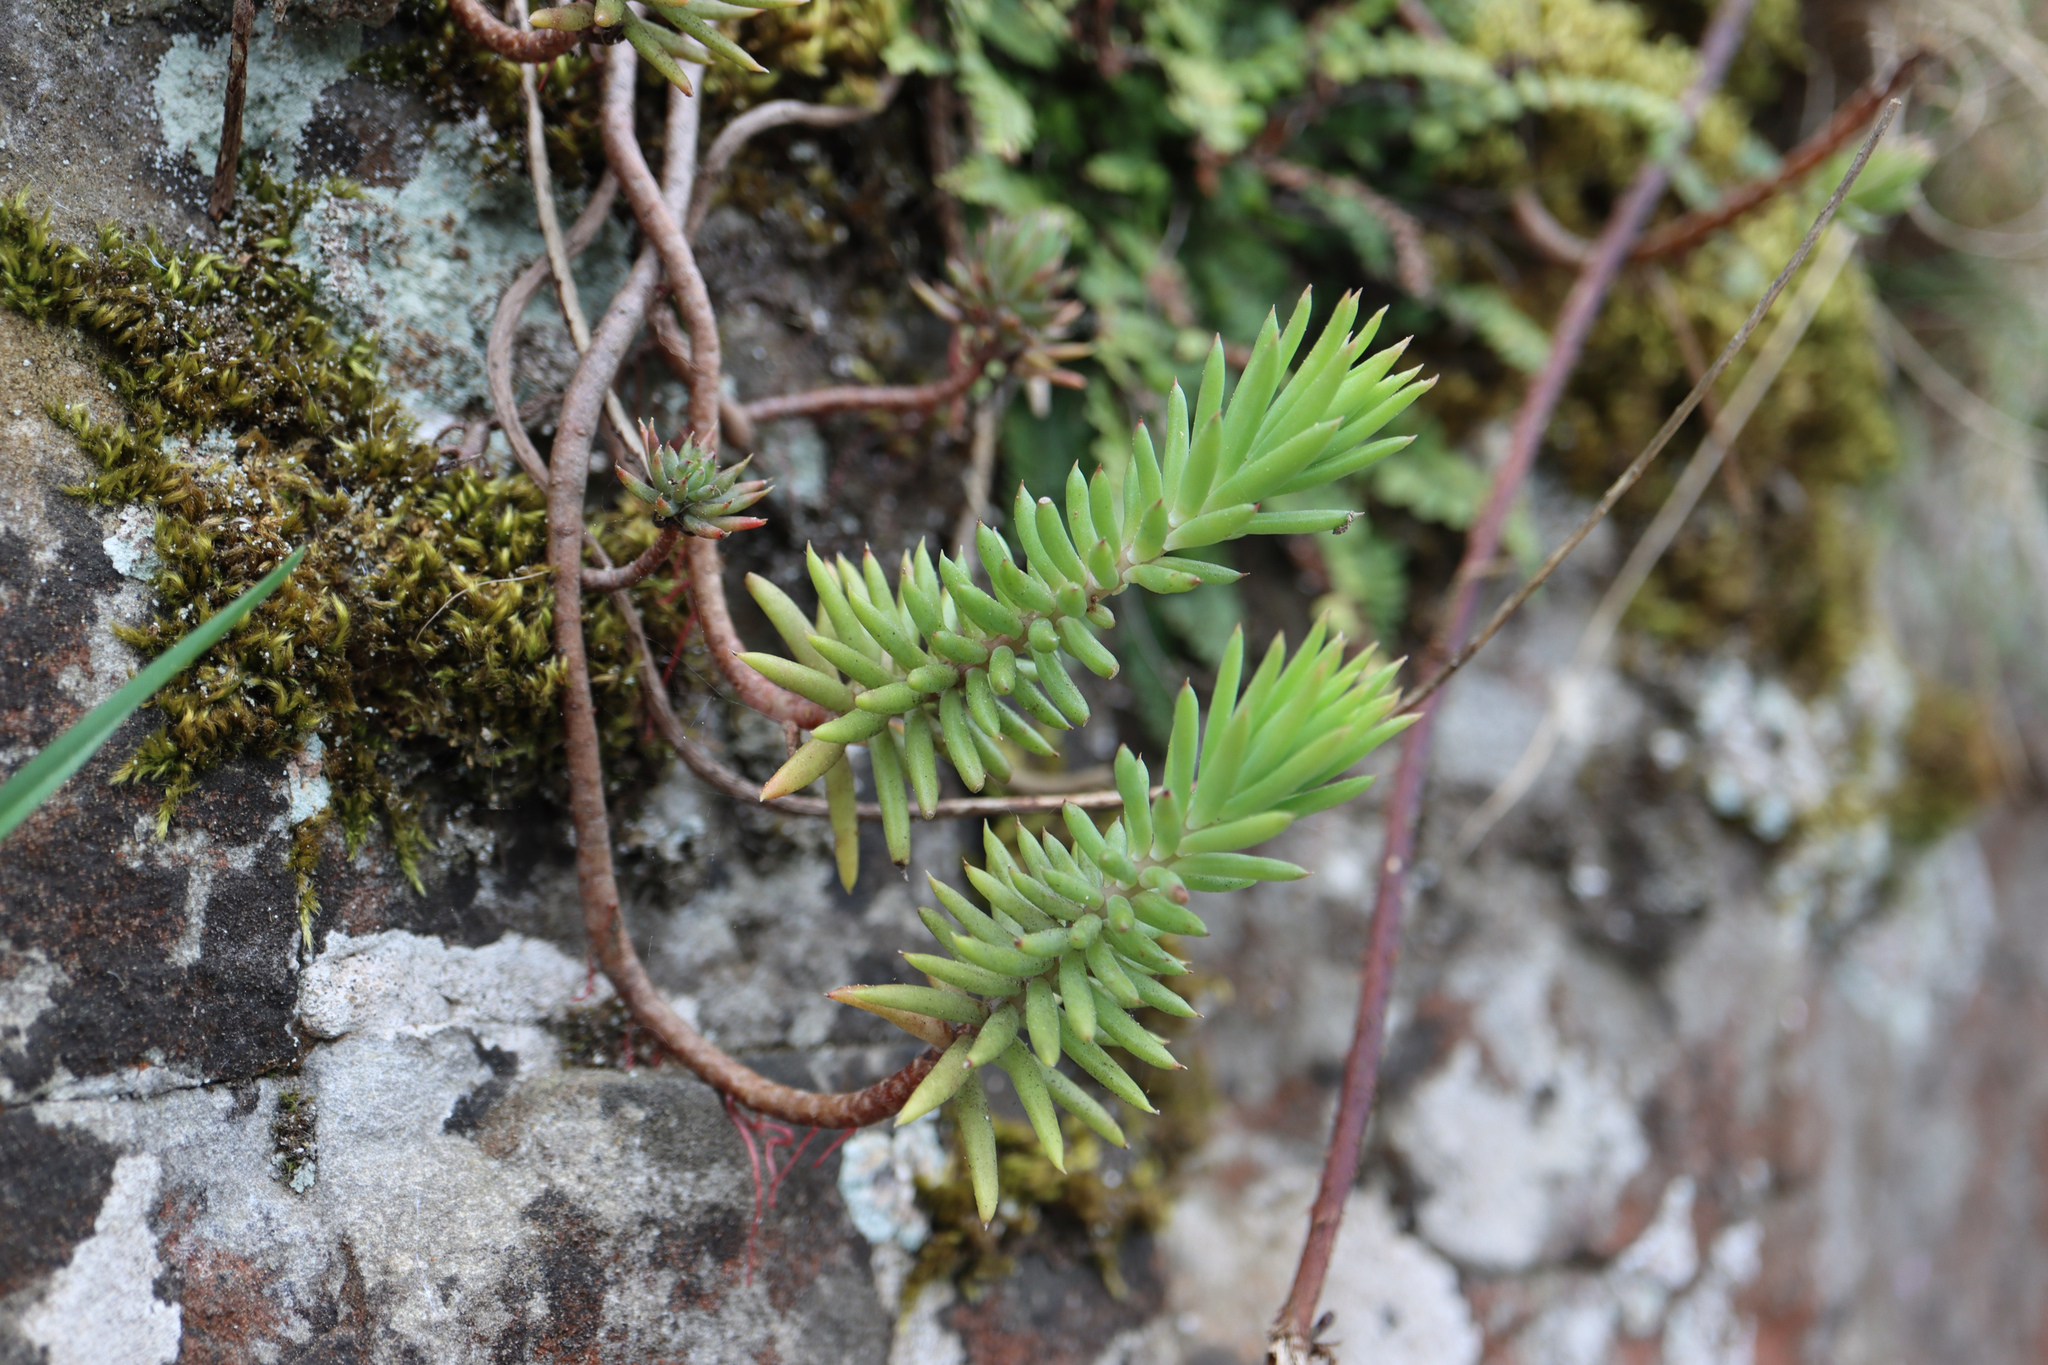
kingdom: Plantae
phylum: Tracheophyta
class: Magnoliopsida
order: Saxifragales
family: Crassulaceae
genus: Petrosedum
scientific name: Petrosedum rupestre
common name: Jenny's stonecrop
